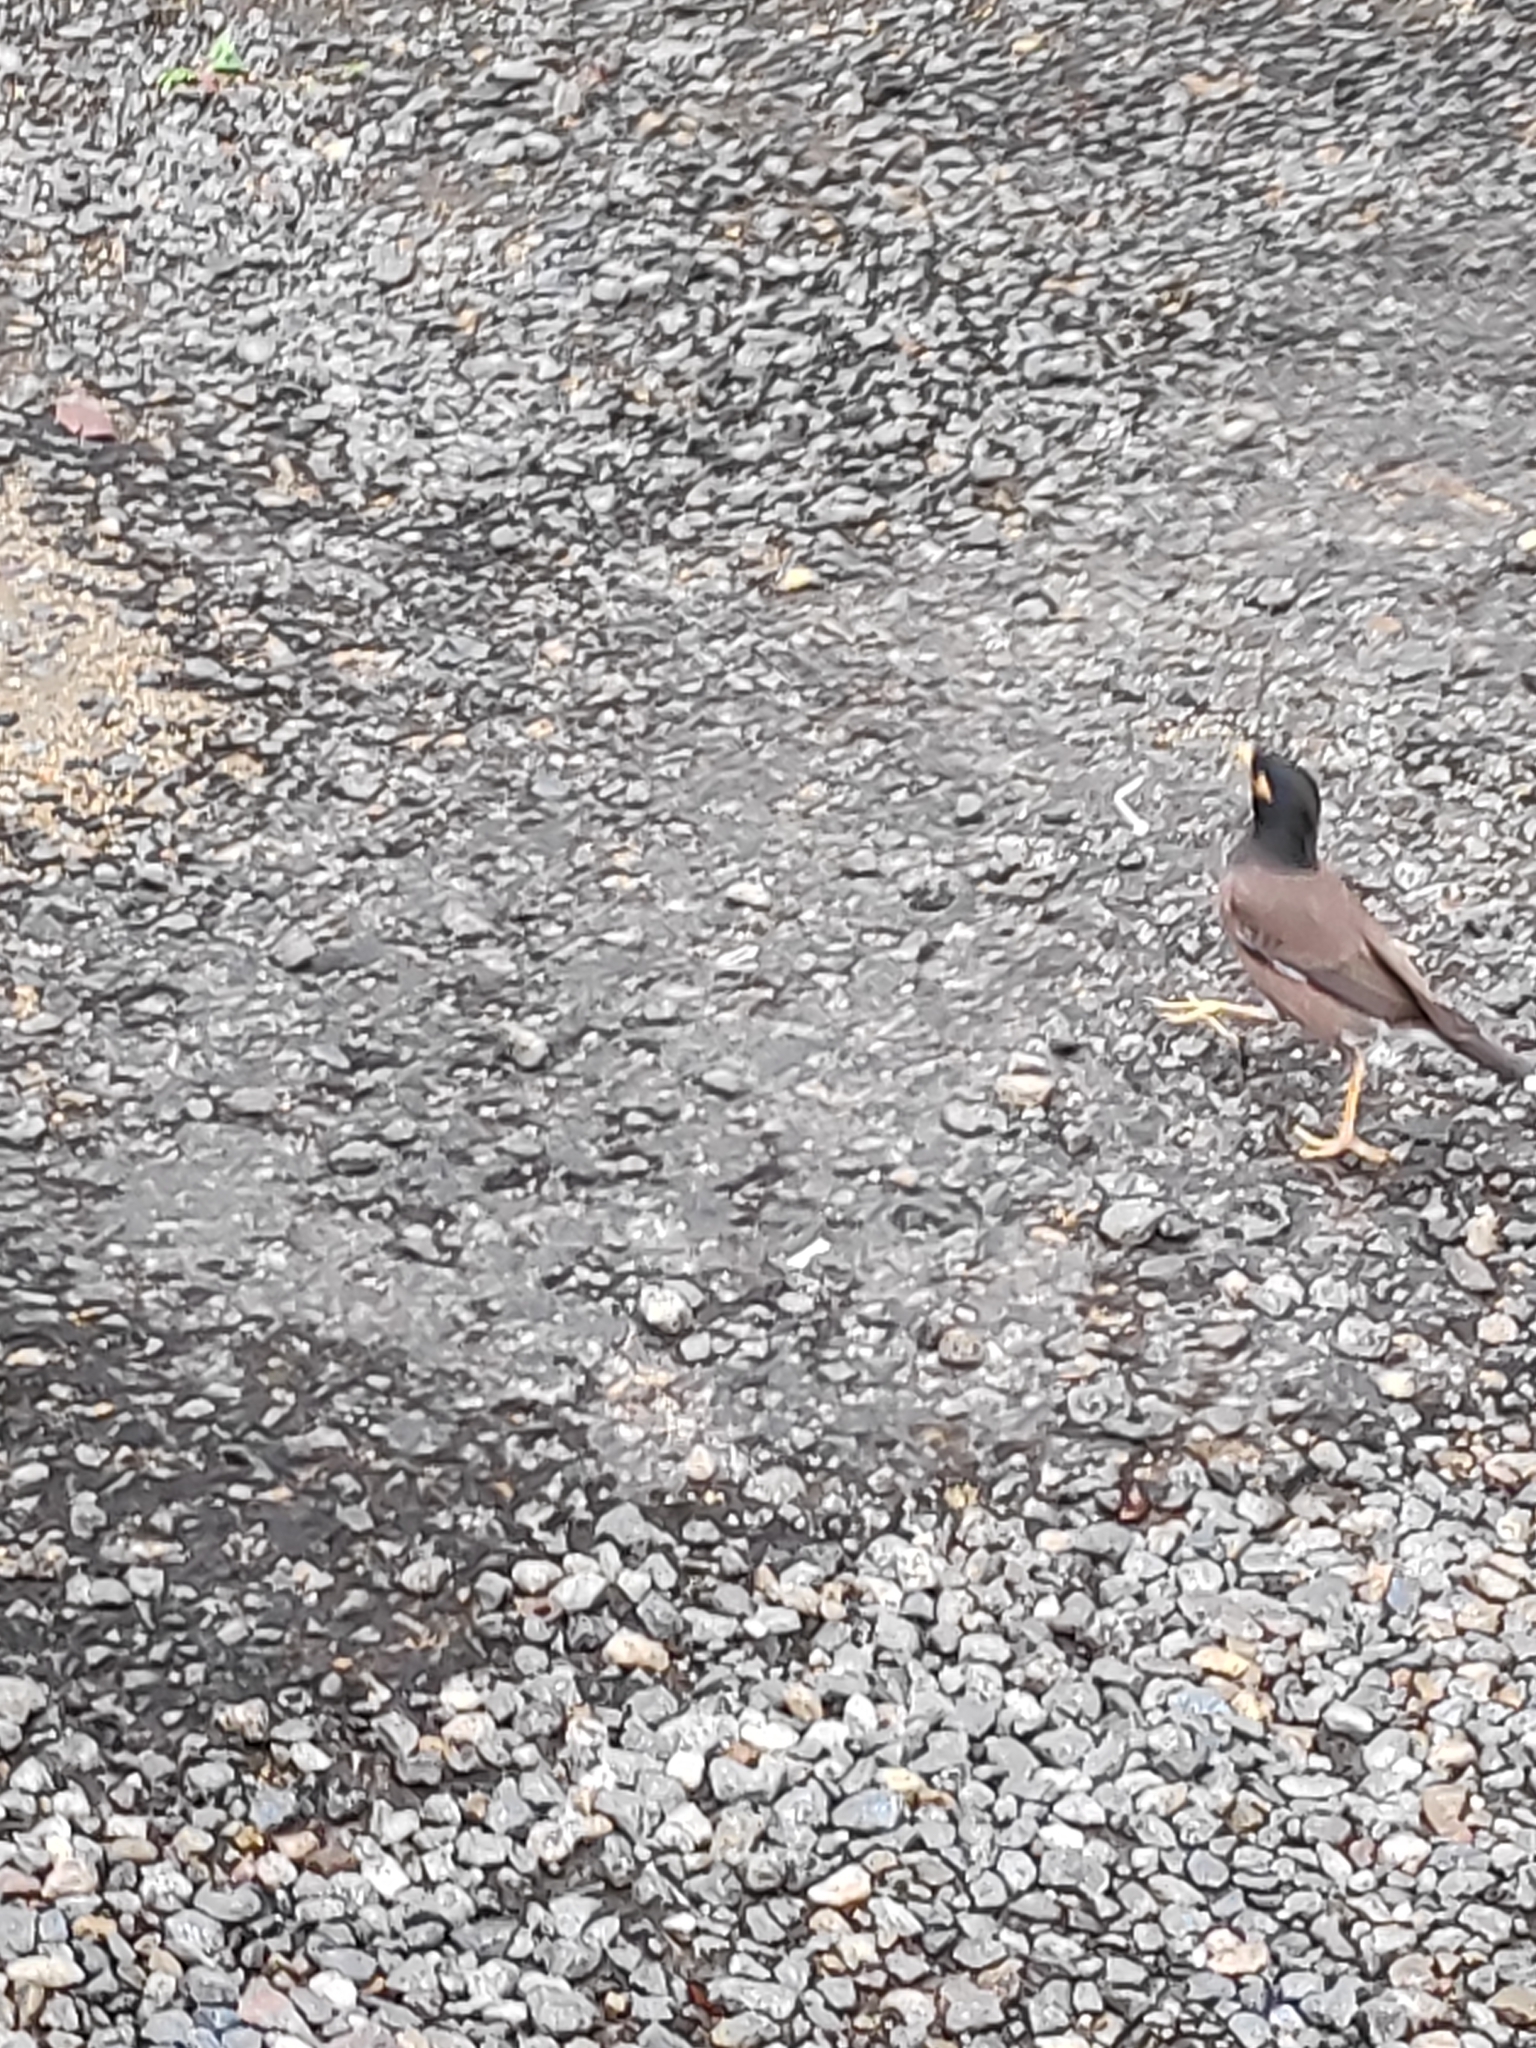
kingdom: Animalia
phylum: Chordata
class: Aves
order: Passeriformes
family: Sturnidae
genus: Acridotheres
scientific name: Acridotheres tristis
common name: Common myna
